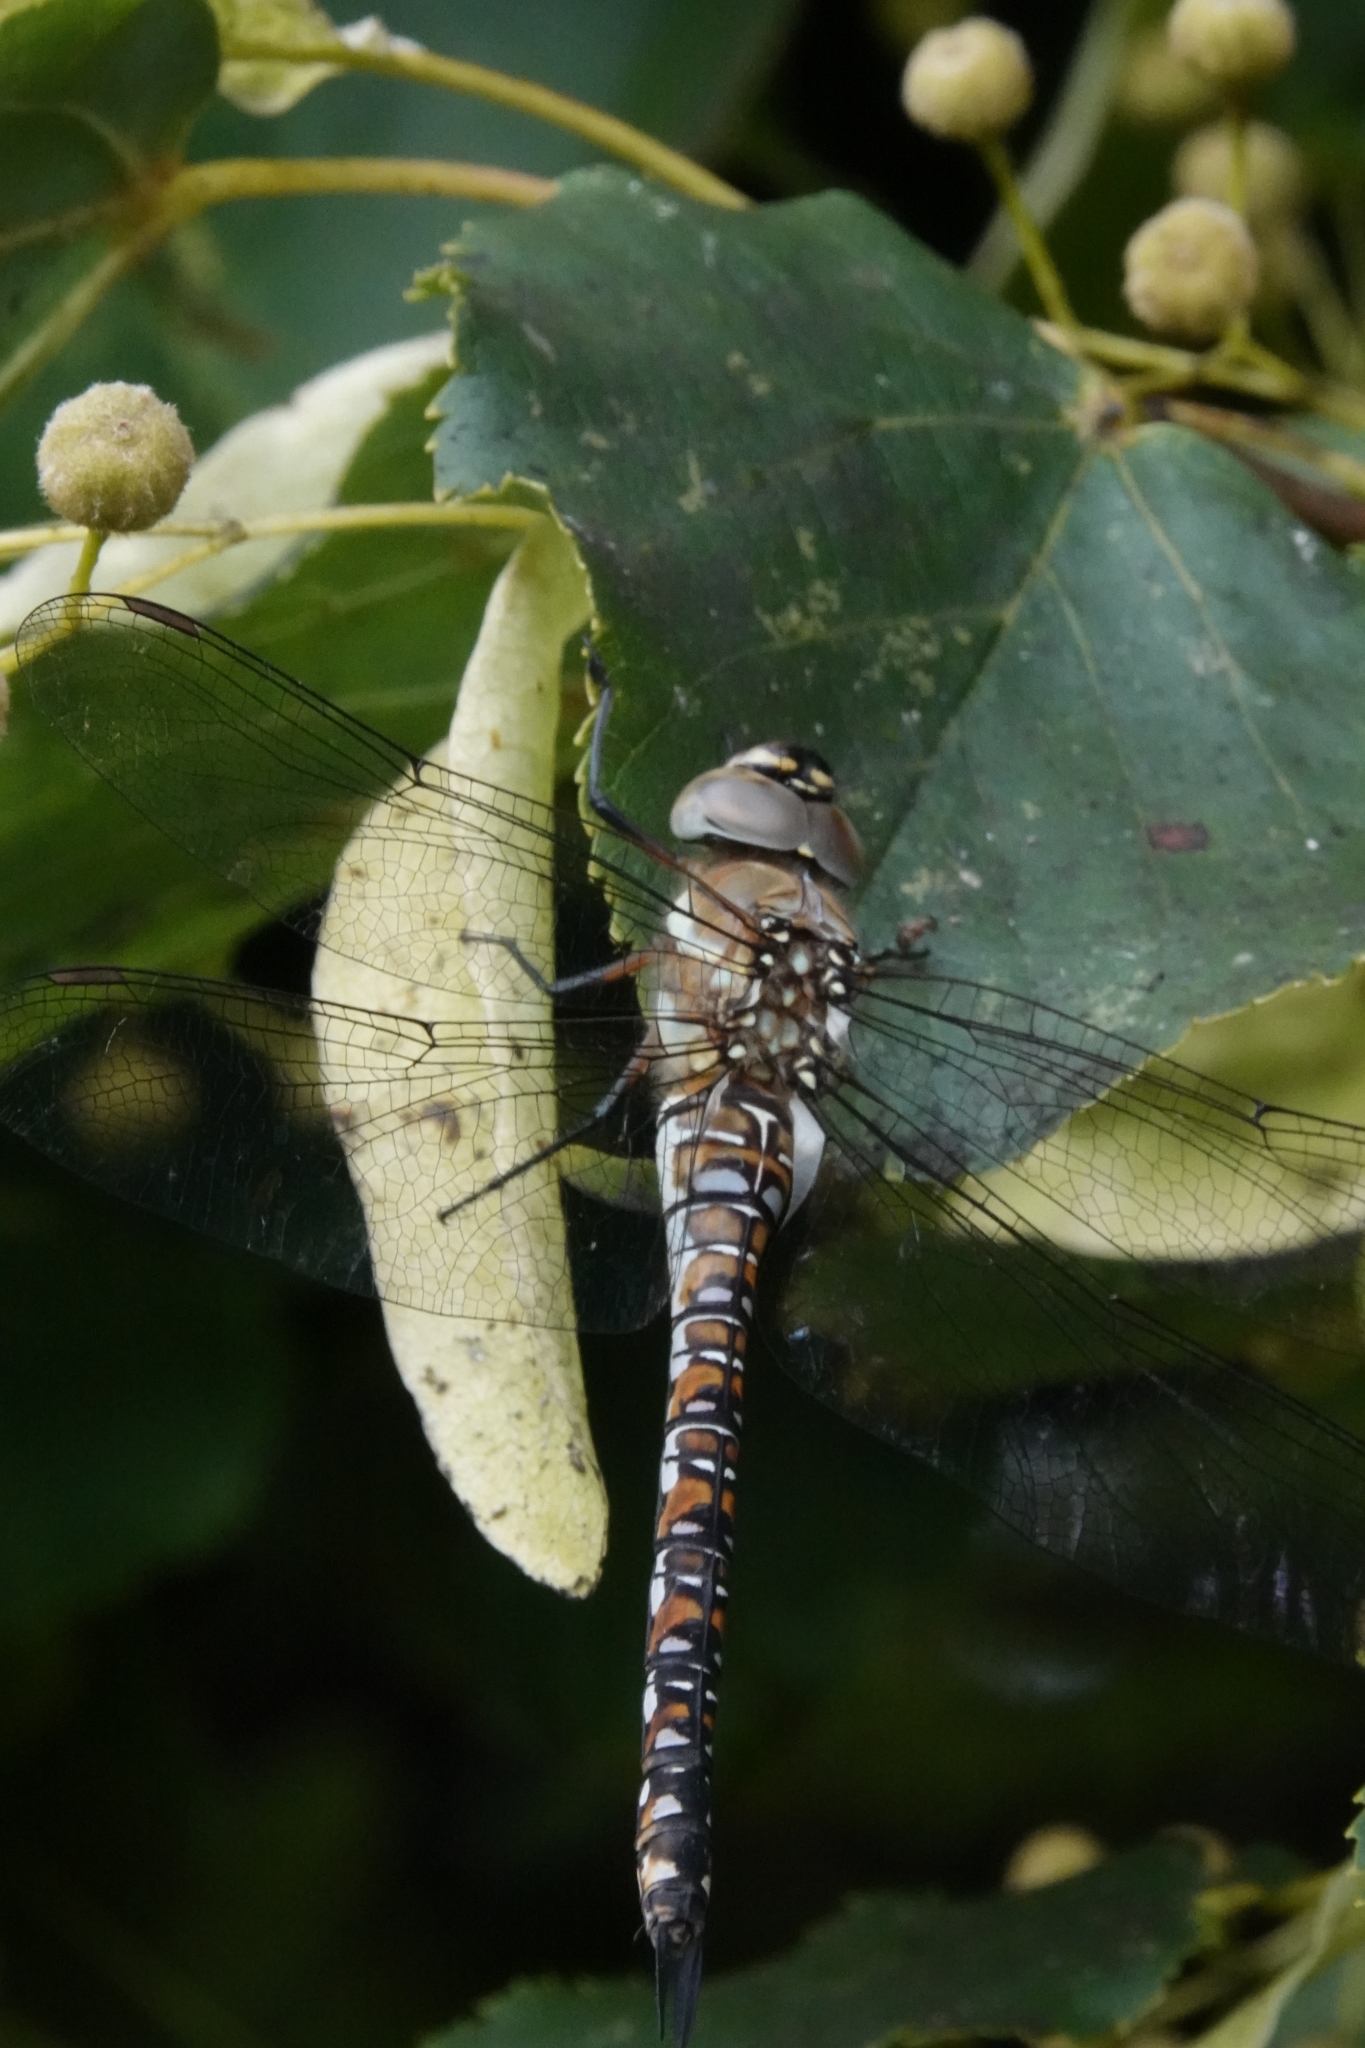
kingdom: Animalia
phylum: Arthropoda
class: Insecta
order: Odonata
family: Aeshnidae
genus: Aeshna
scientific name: Aeshna mixta
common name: Migrant hawker
